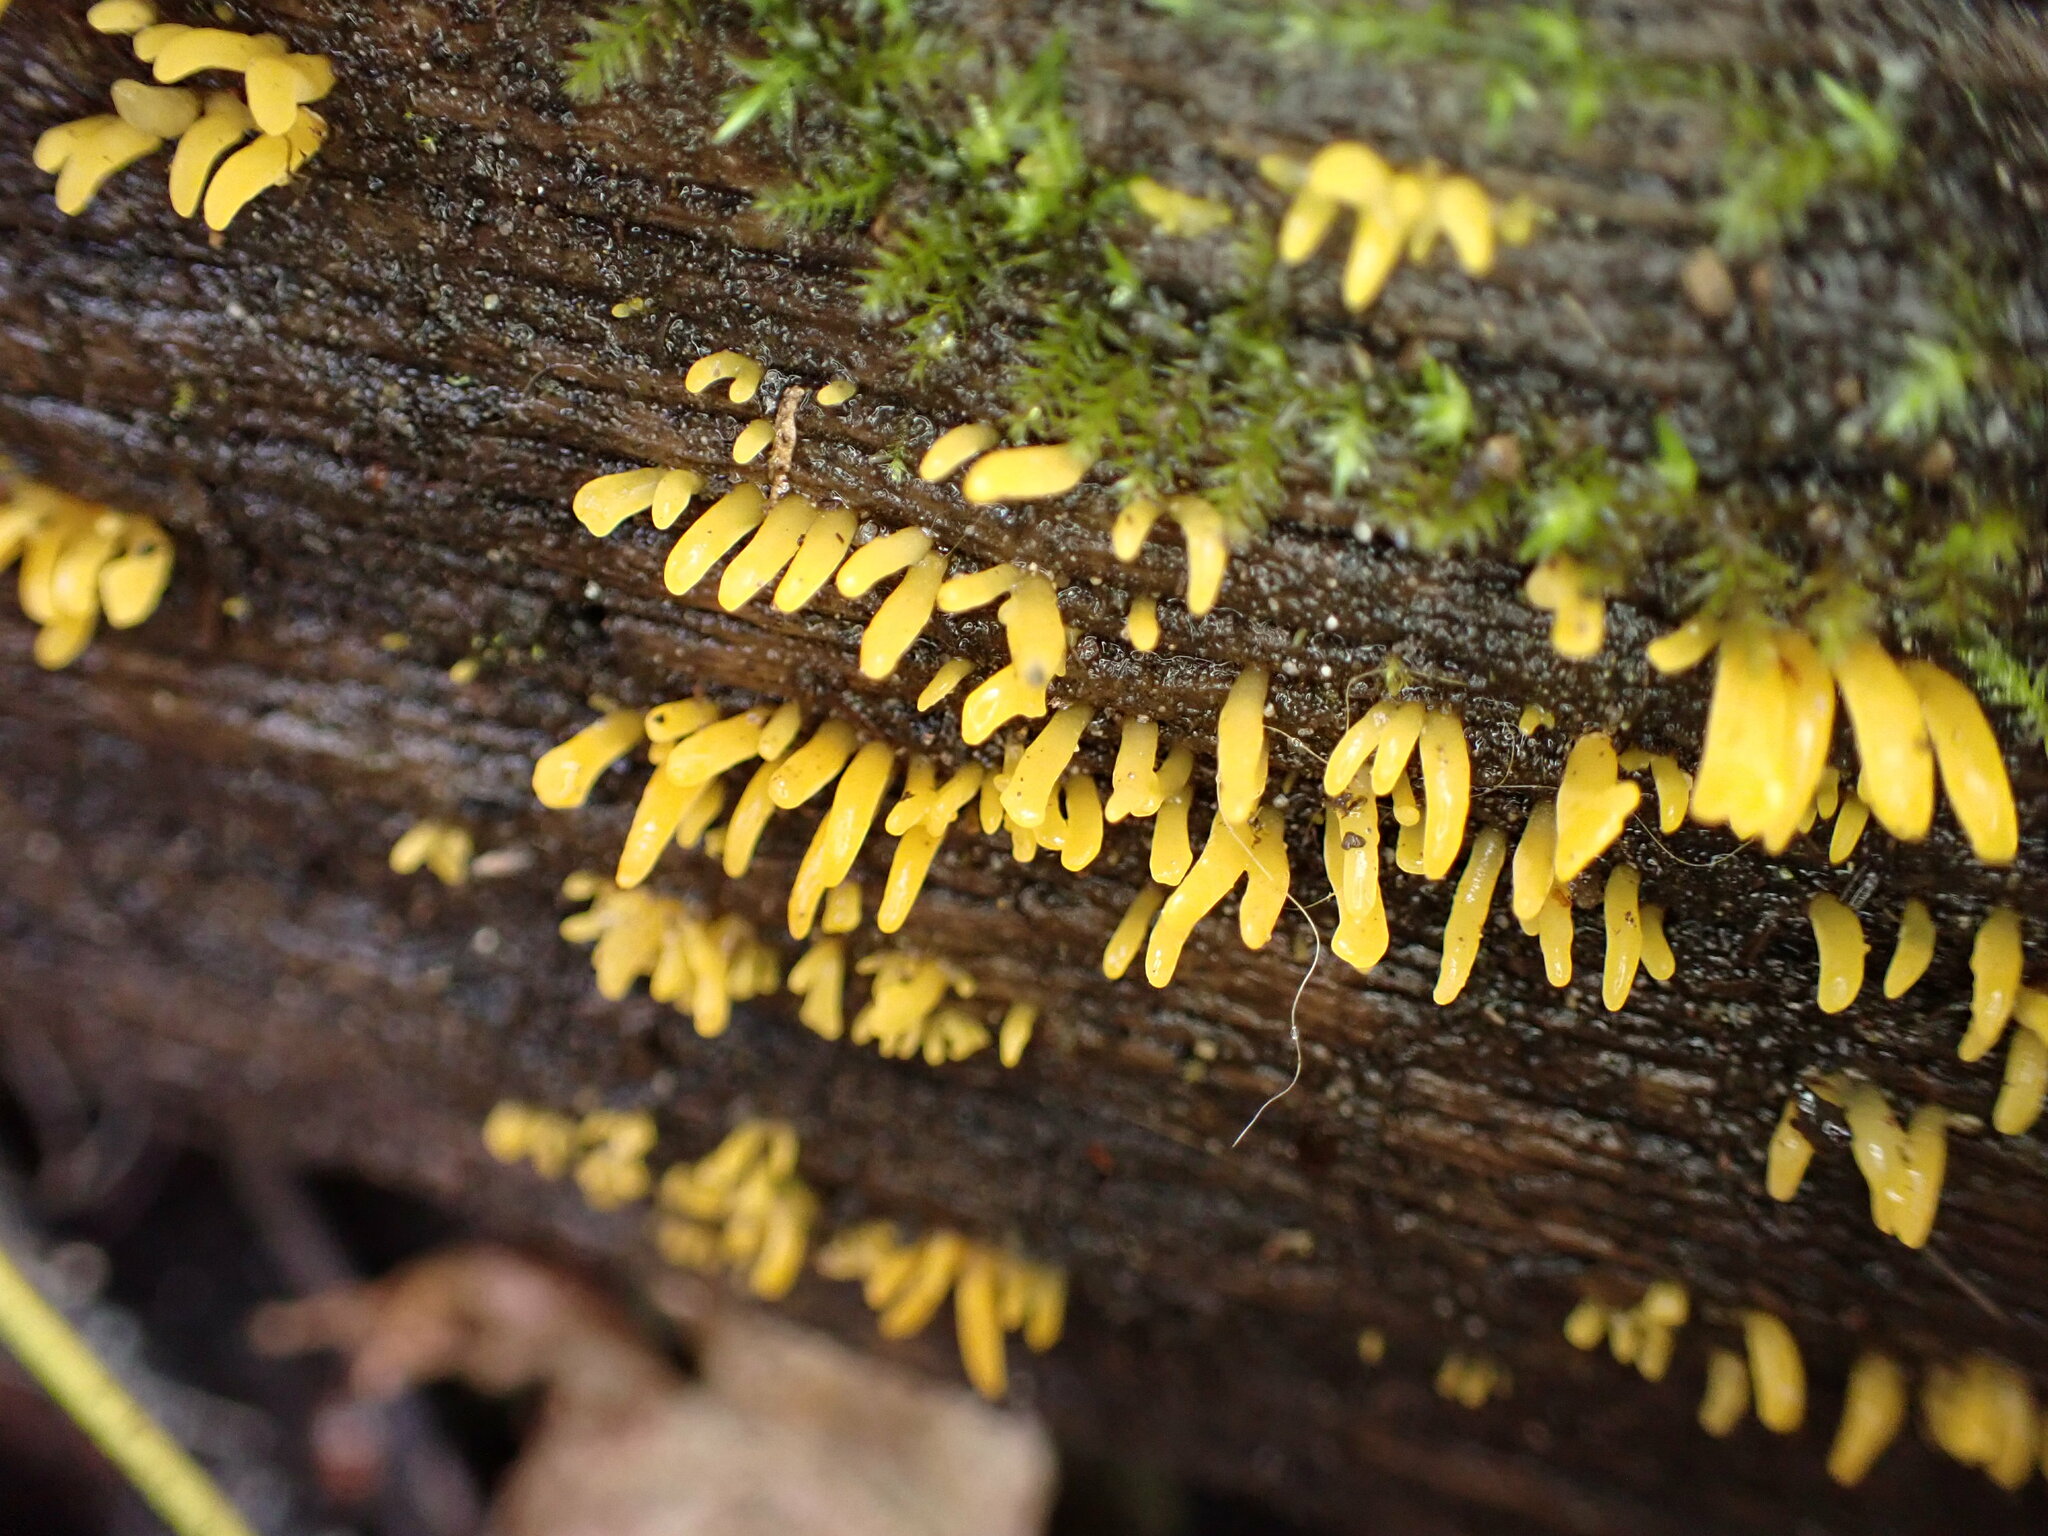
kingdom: Fungi
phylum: Basidiomycota
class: Dacrymycetes
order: Dacrymycetales
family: Dacrymycetaceae
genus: Calocera
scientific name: Calocera cornea
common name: Small stagshorn
